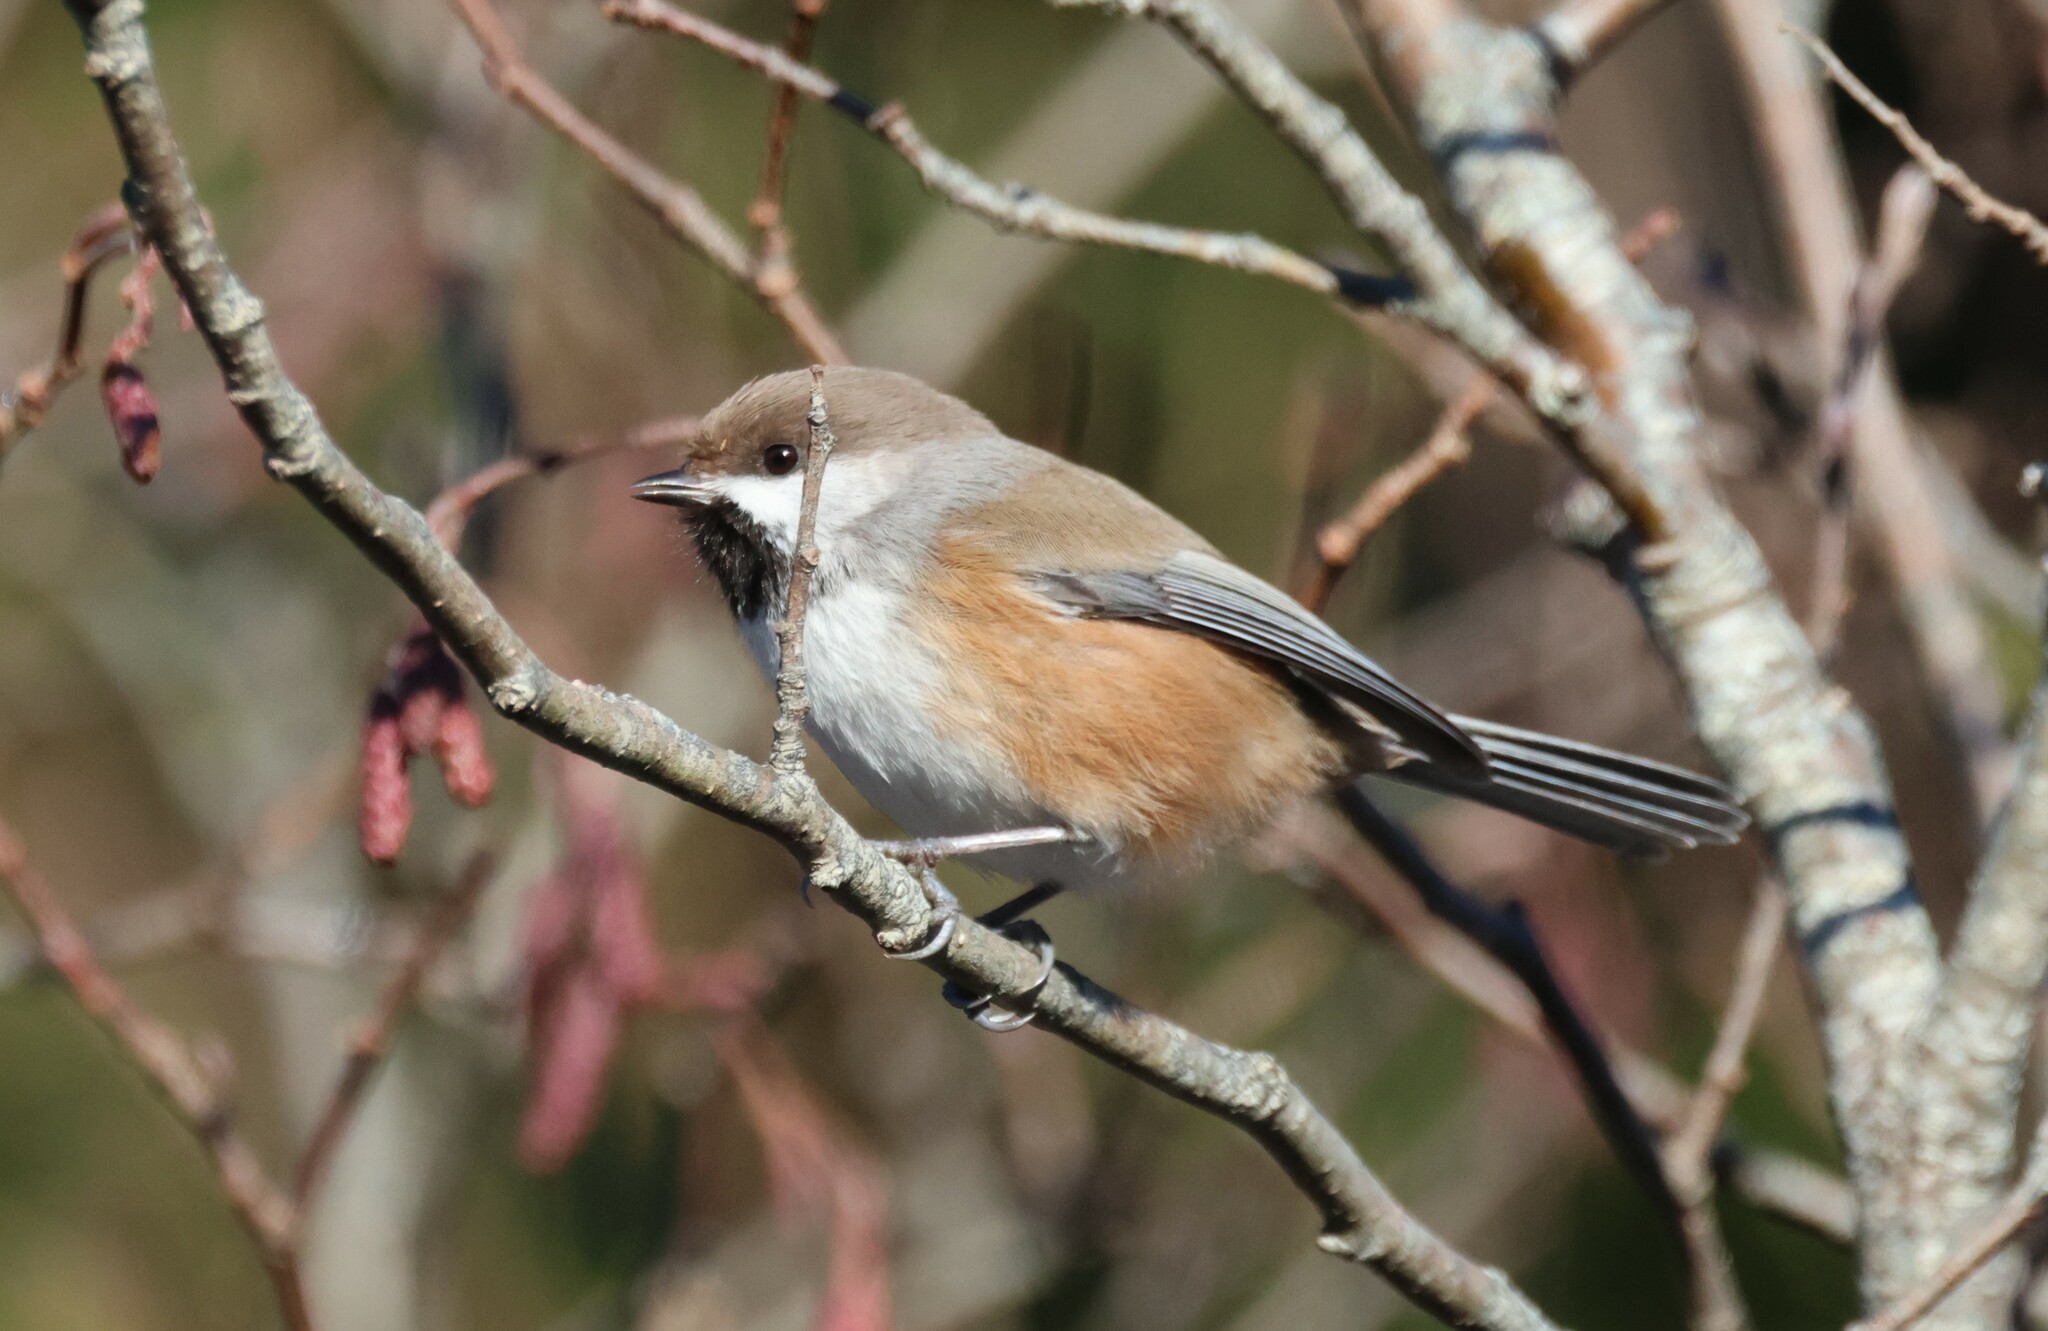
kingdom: Animalia
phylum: Chordata
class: Aves
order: Passeriformes
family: Paridae
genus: Poecile
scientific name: Poecile hudsonicus
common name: Boreal chickadee
